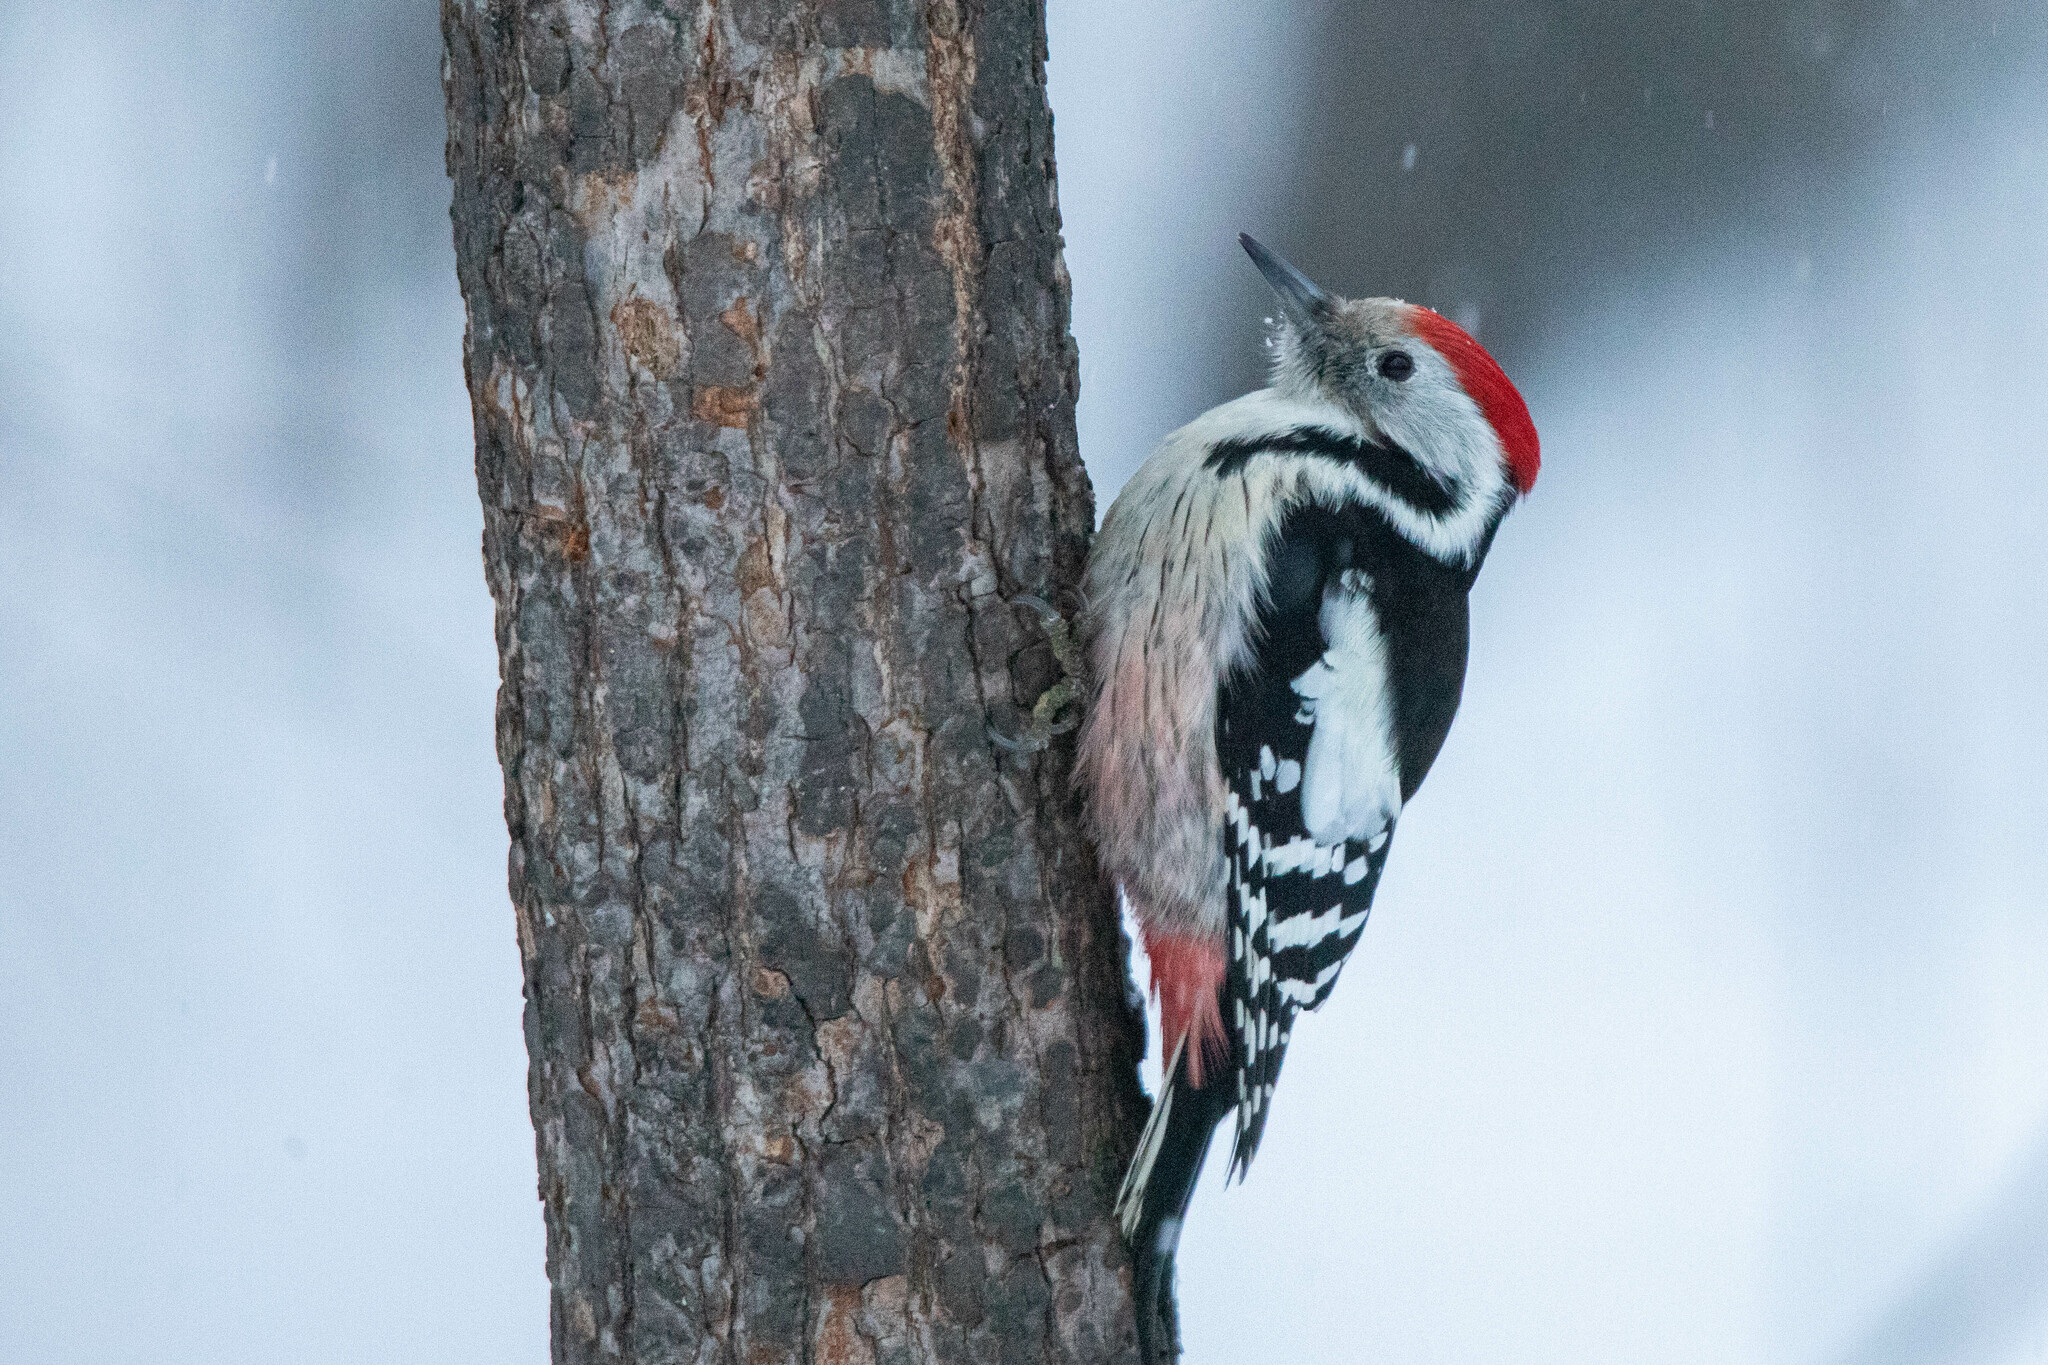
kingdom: Animalia
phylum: Chordata
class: Aves
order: Piciformes
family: Picidae
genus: Dendrocoptes
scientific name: Dendrocoptes medius
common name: Middle spotted woodpecker
